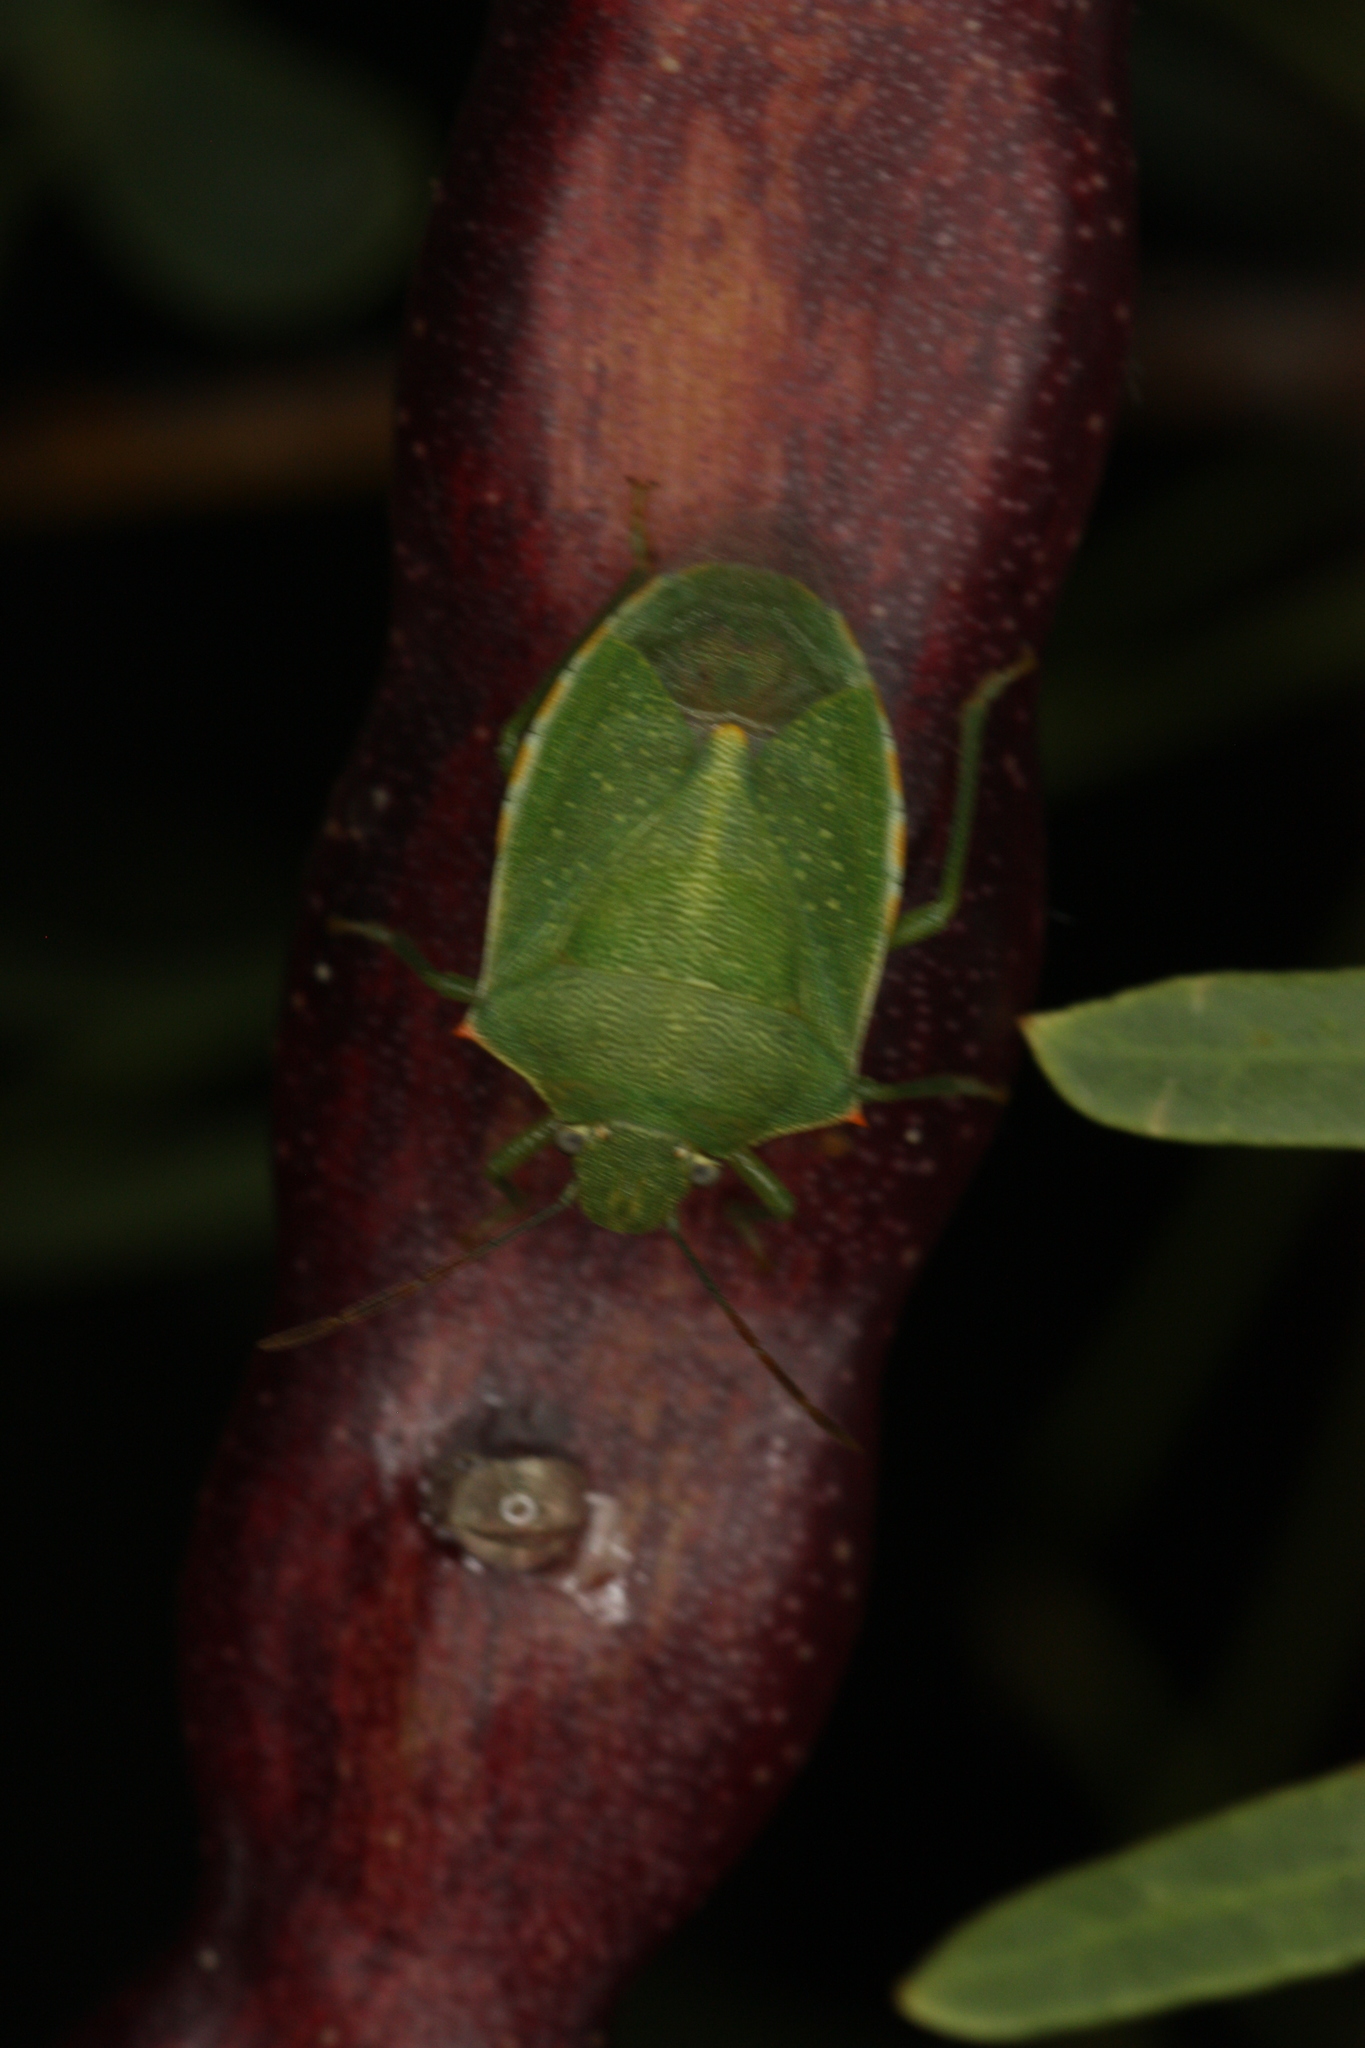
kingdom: Animalia
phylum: Arthropoda
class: Insecta
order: Hemiptera
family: Pentatomidae
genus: Thyanta
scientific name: Thyanta accerra
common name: Stink bug
